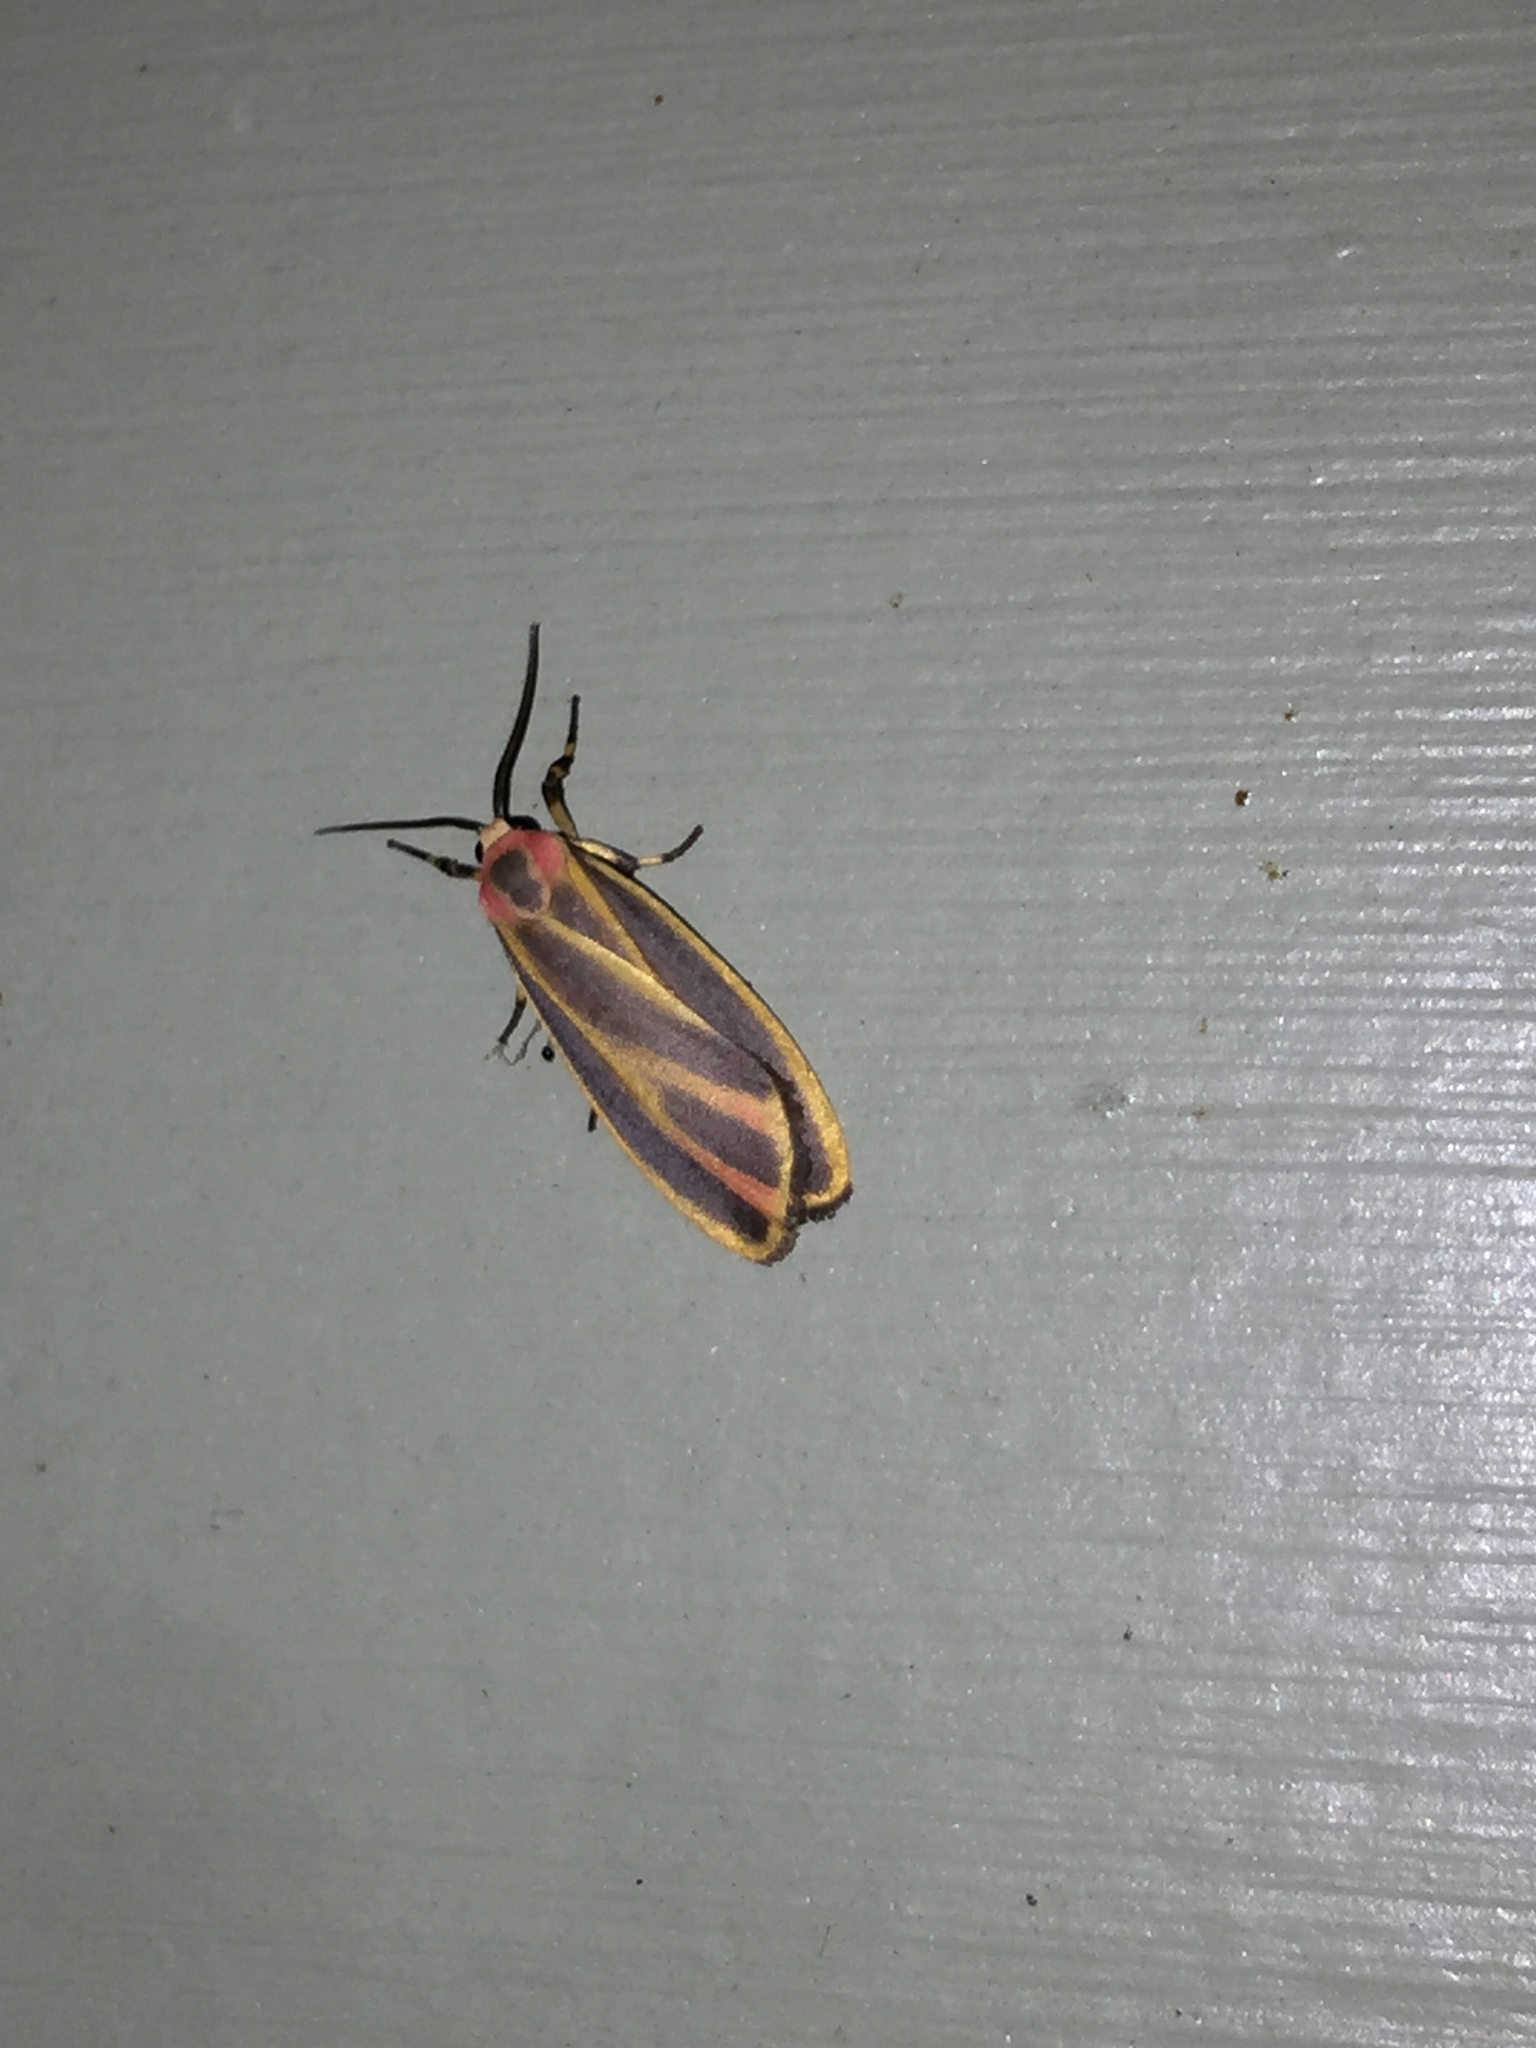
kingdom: Animalia
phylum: Arthropoda
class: Insecta
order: Lepidoptera
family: Erebidae
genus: Hypoprepia
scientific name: Hypoprepia fucosa
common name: Painted lichen moth
